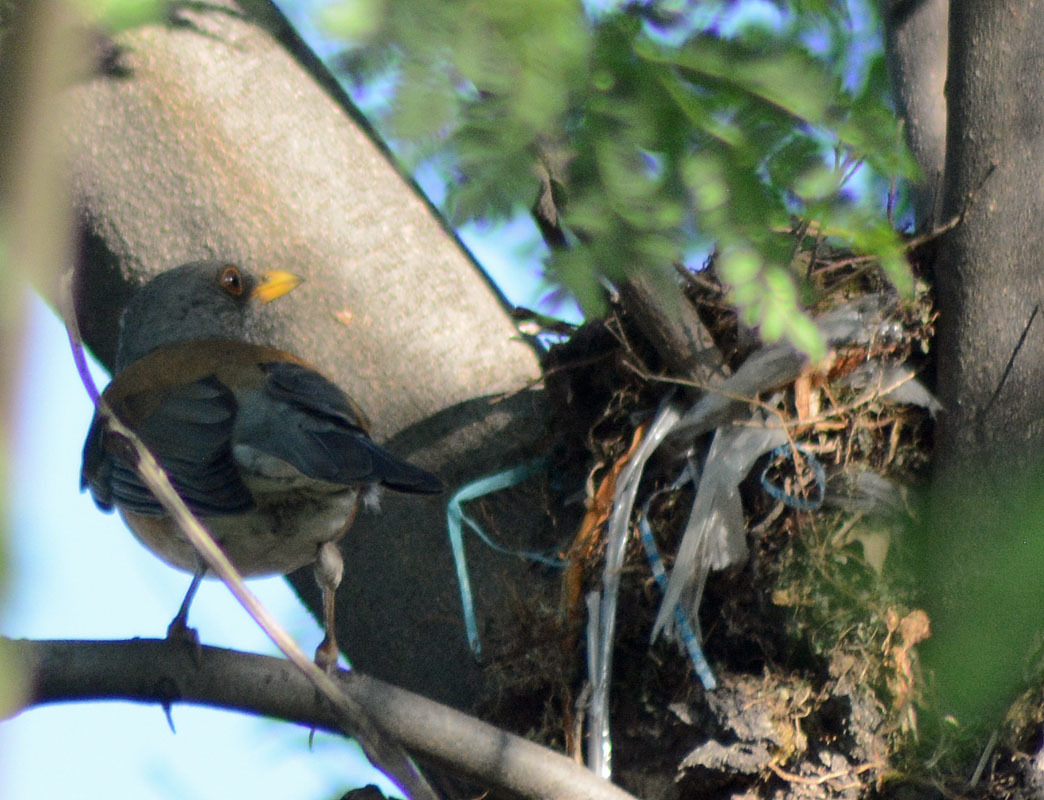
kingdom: Animalia
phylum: Chordata
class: Aves
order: Passeriformes
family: Turdidae
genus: Turdus
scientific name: Turdus rufopalliatus
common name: Rufous-backed robin
